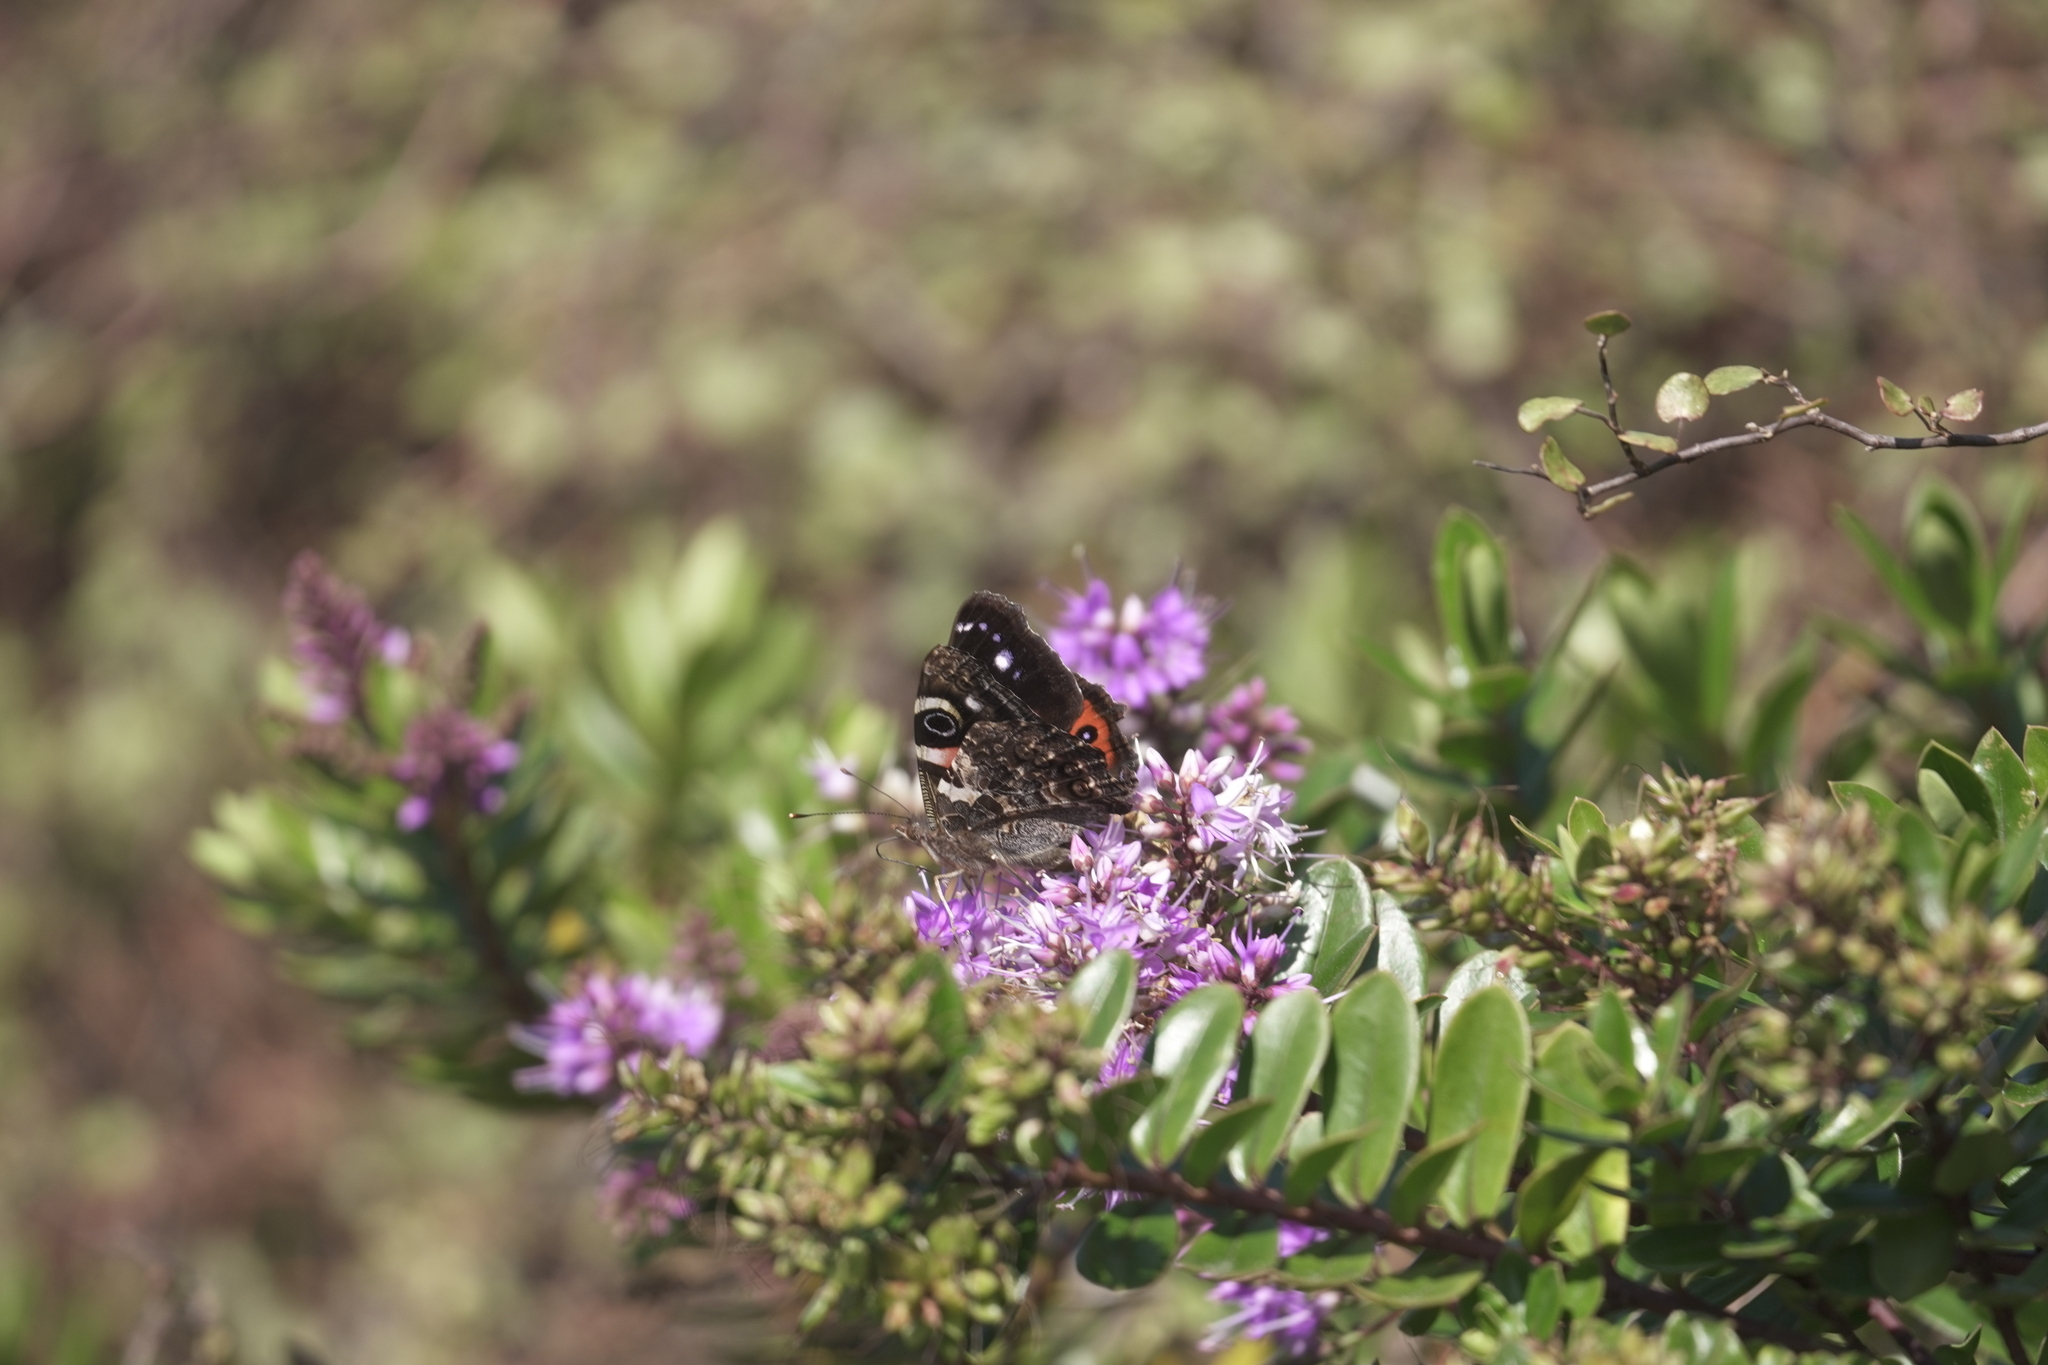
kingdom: Animalia
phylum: Arthropoda
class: Insecta
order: Lepidoptera
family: Nymphalidae
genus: Vanessa
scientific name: Vanessa gonerilla
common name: New zealand red admiral
